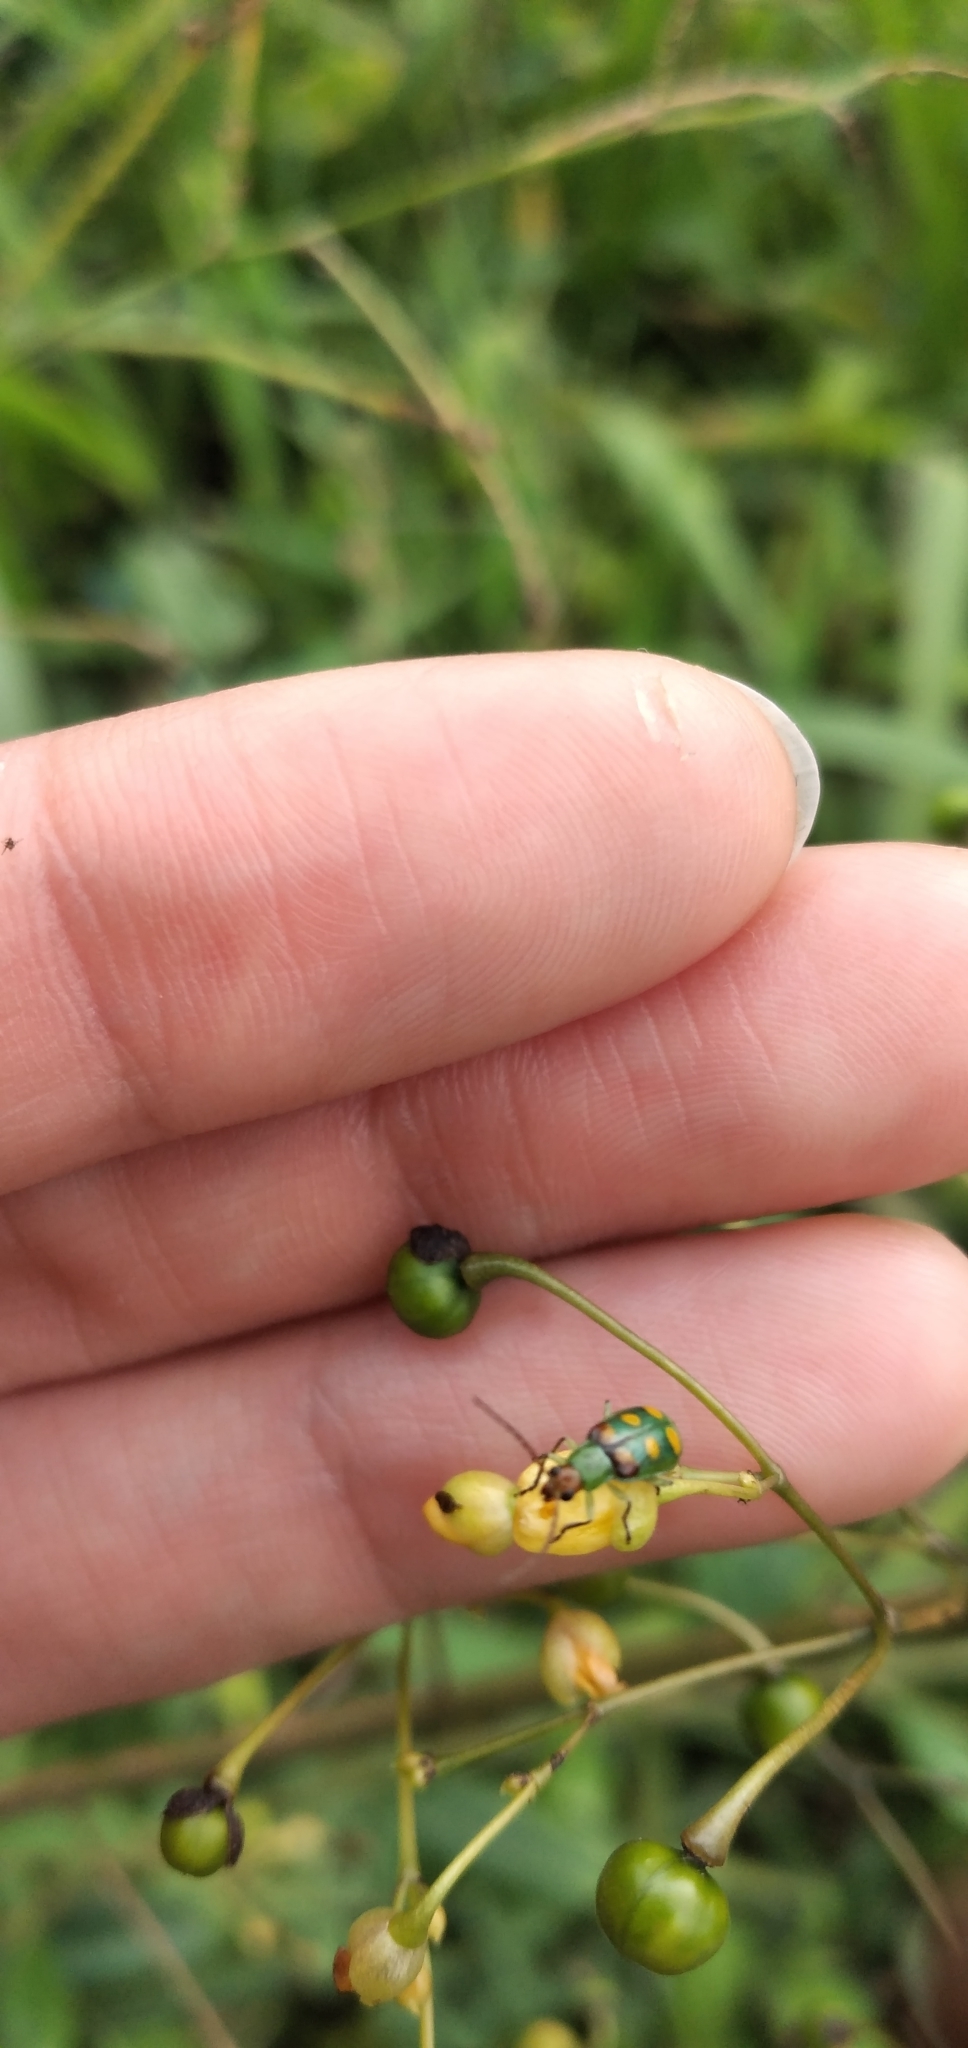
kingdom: Animalia
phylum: Arthropoda
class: Insecta
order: Coleoptera
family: Chrysomelidae
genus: Diabrotica
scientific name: Diabrotica speciosa
